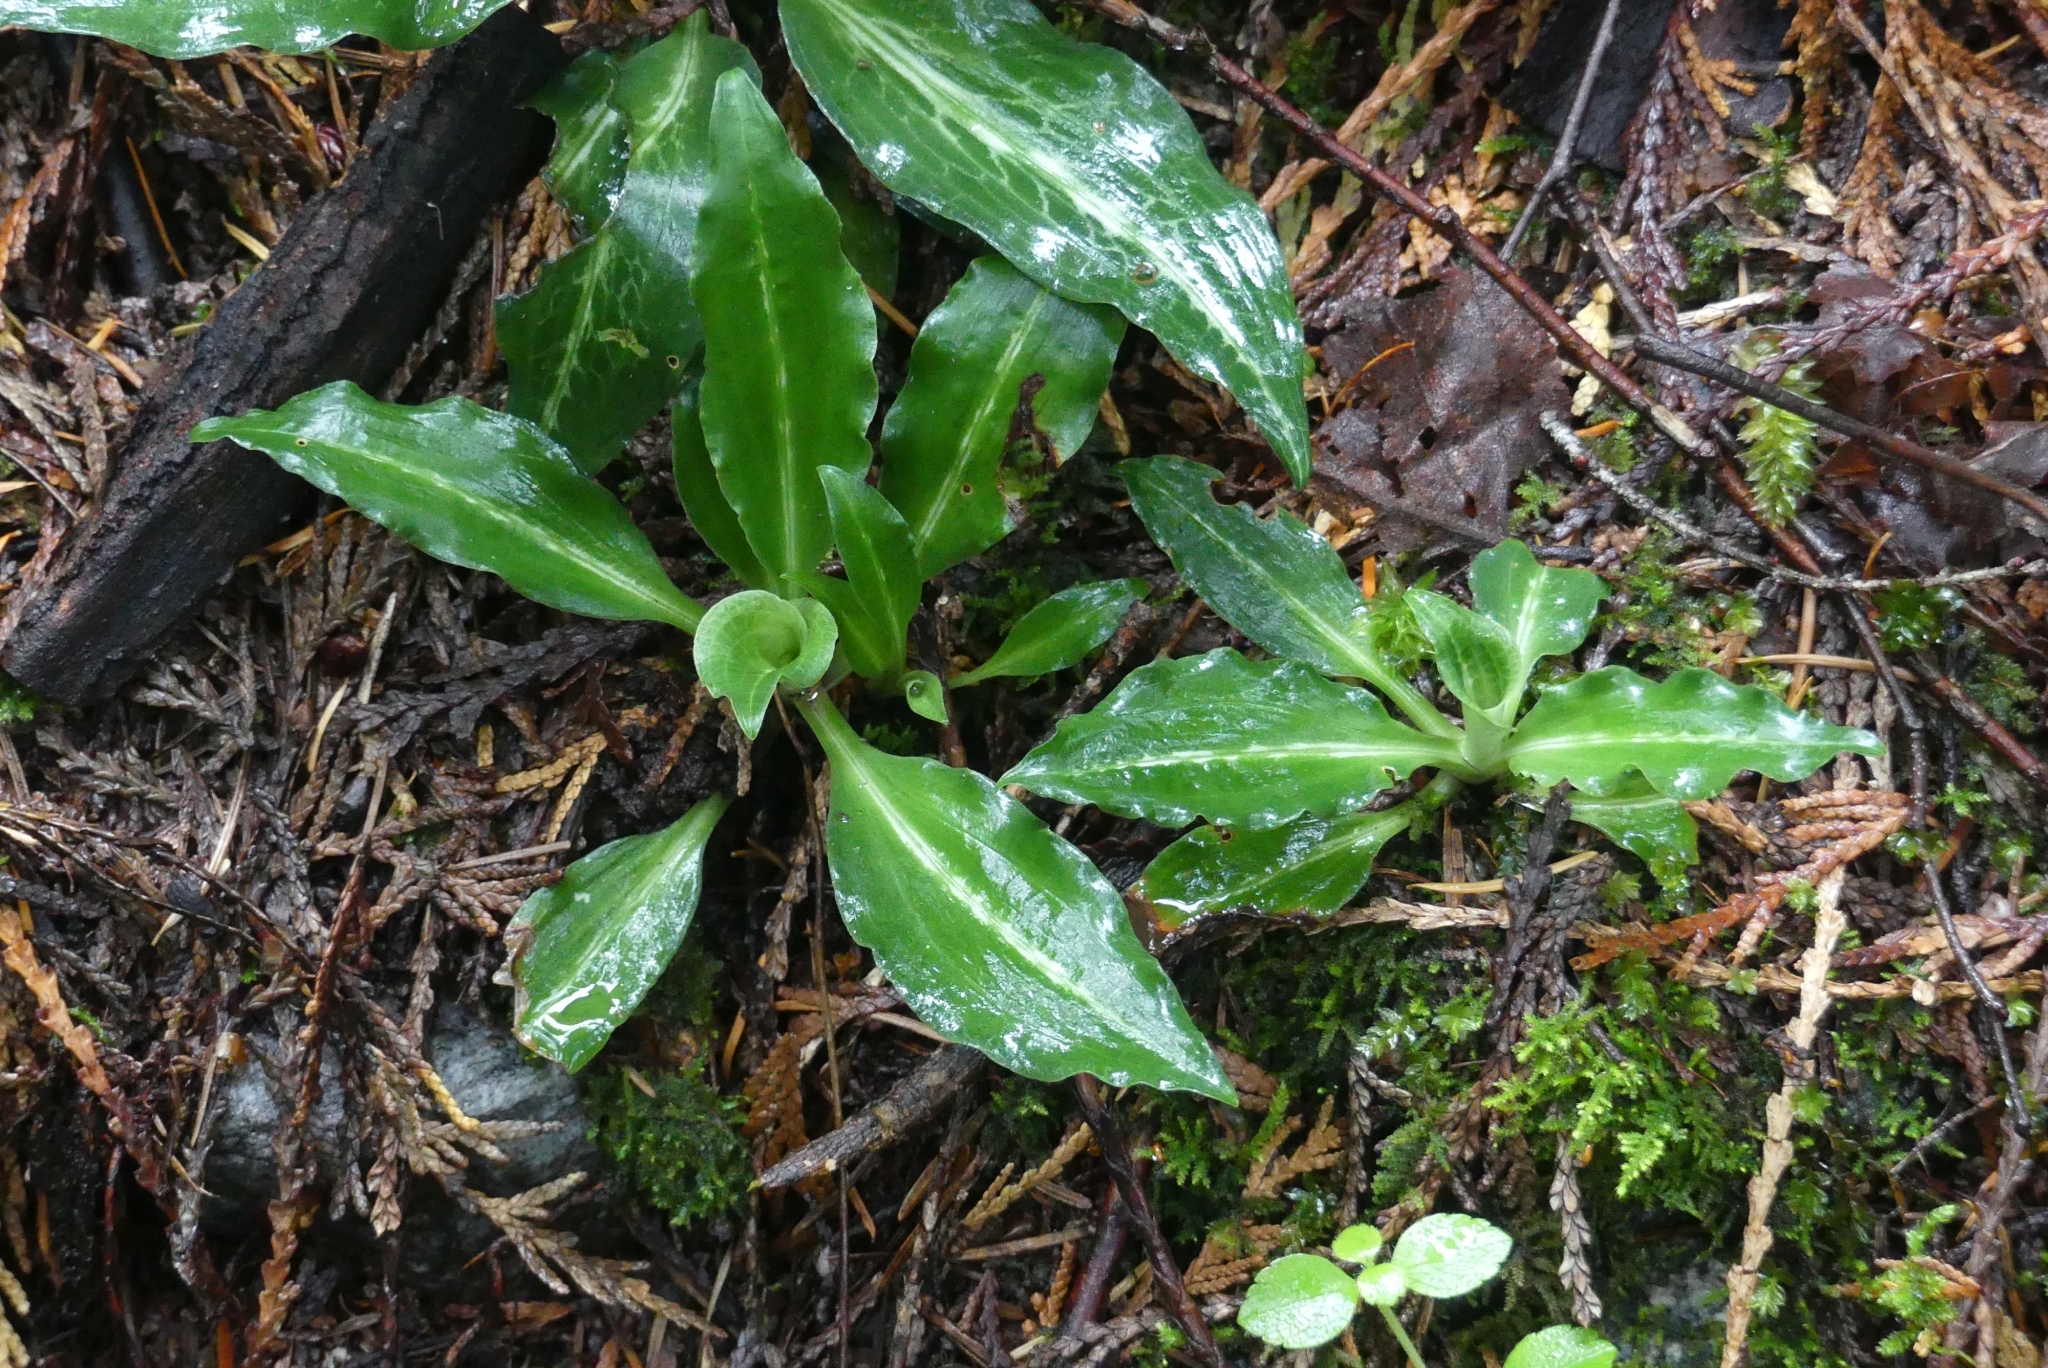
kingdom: Plantae
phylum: Tracheophyta
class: Liliopsida
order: Asparagales
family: Orchidaceae
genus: Goodyera
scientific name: Goodyera oblongifolia
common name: Giant rattlesnake-plantain
